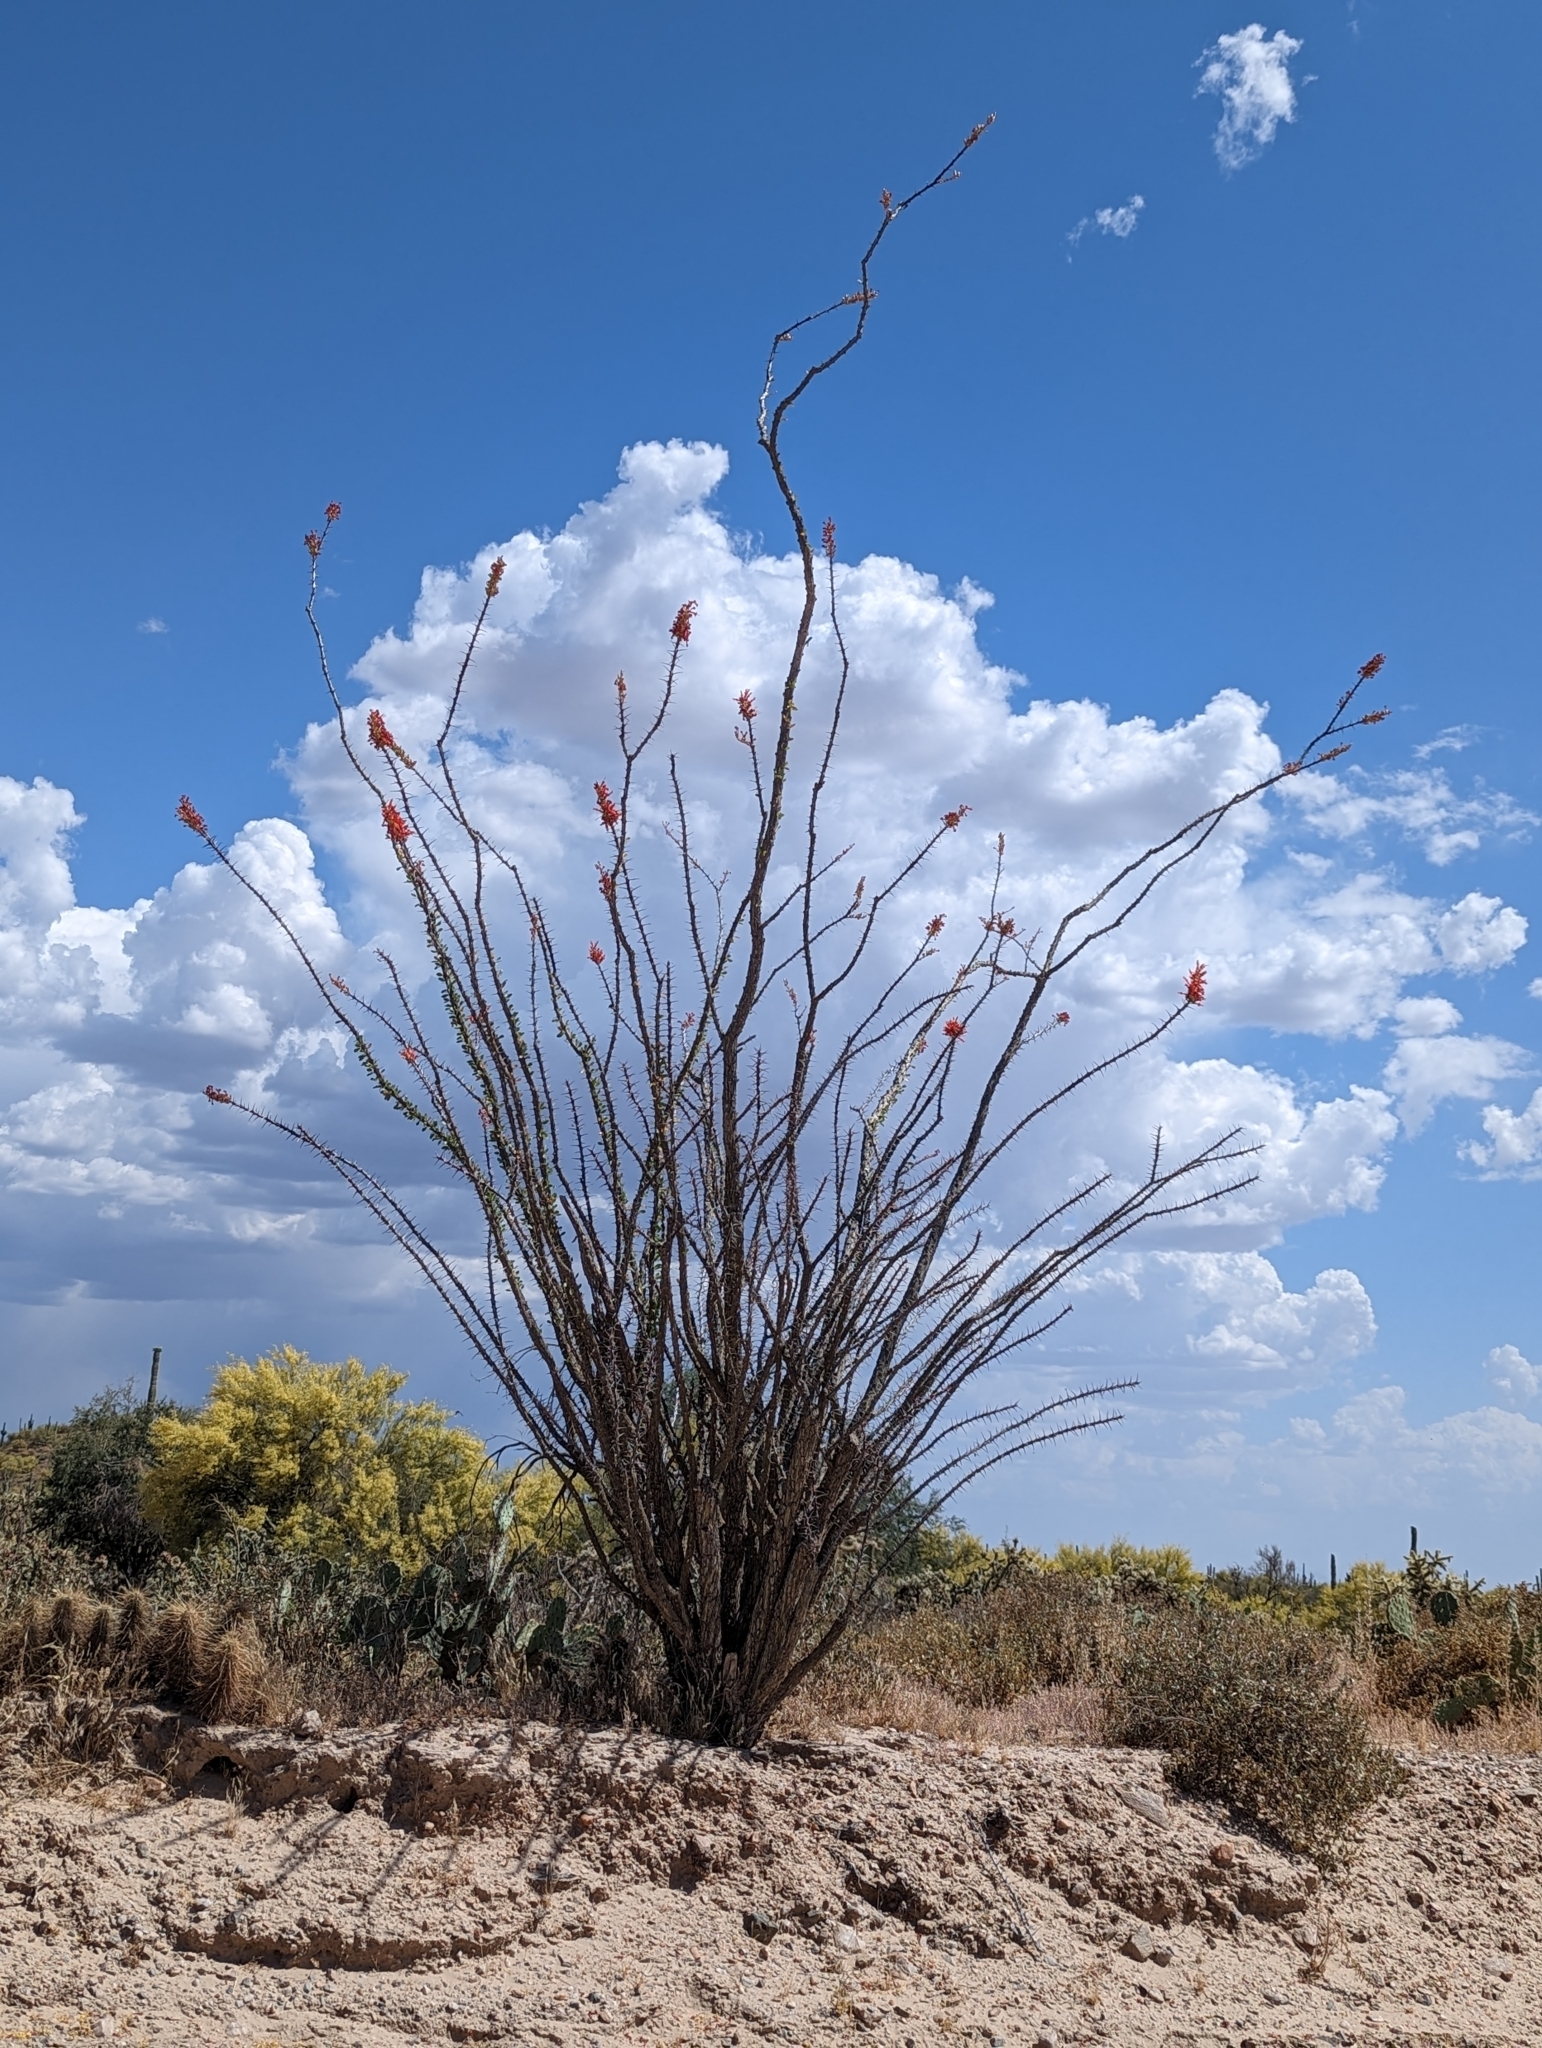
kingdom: Plantae
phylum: Tracheophyta
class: Magnoliopsida
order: Ericales
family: Fouquieriaceae
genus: Fouquieria
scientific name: Fouquieria splendens
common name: Vine-cactus
